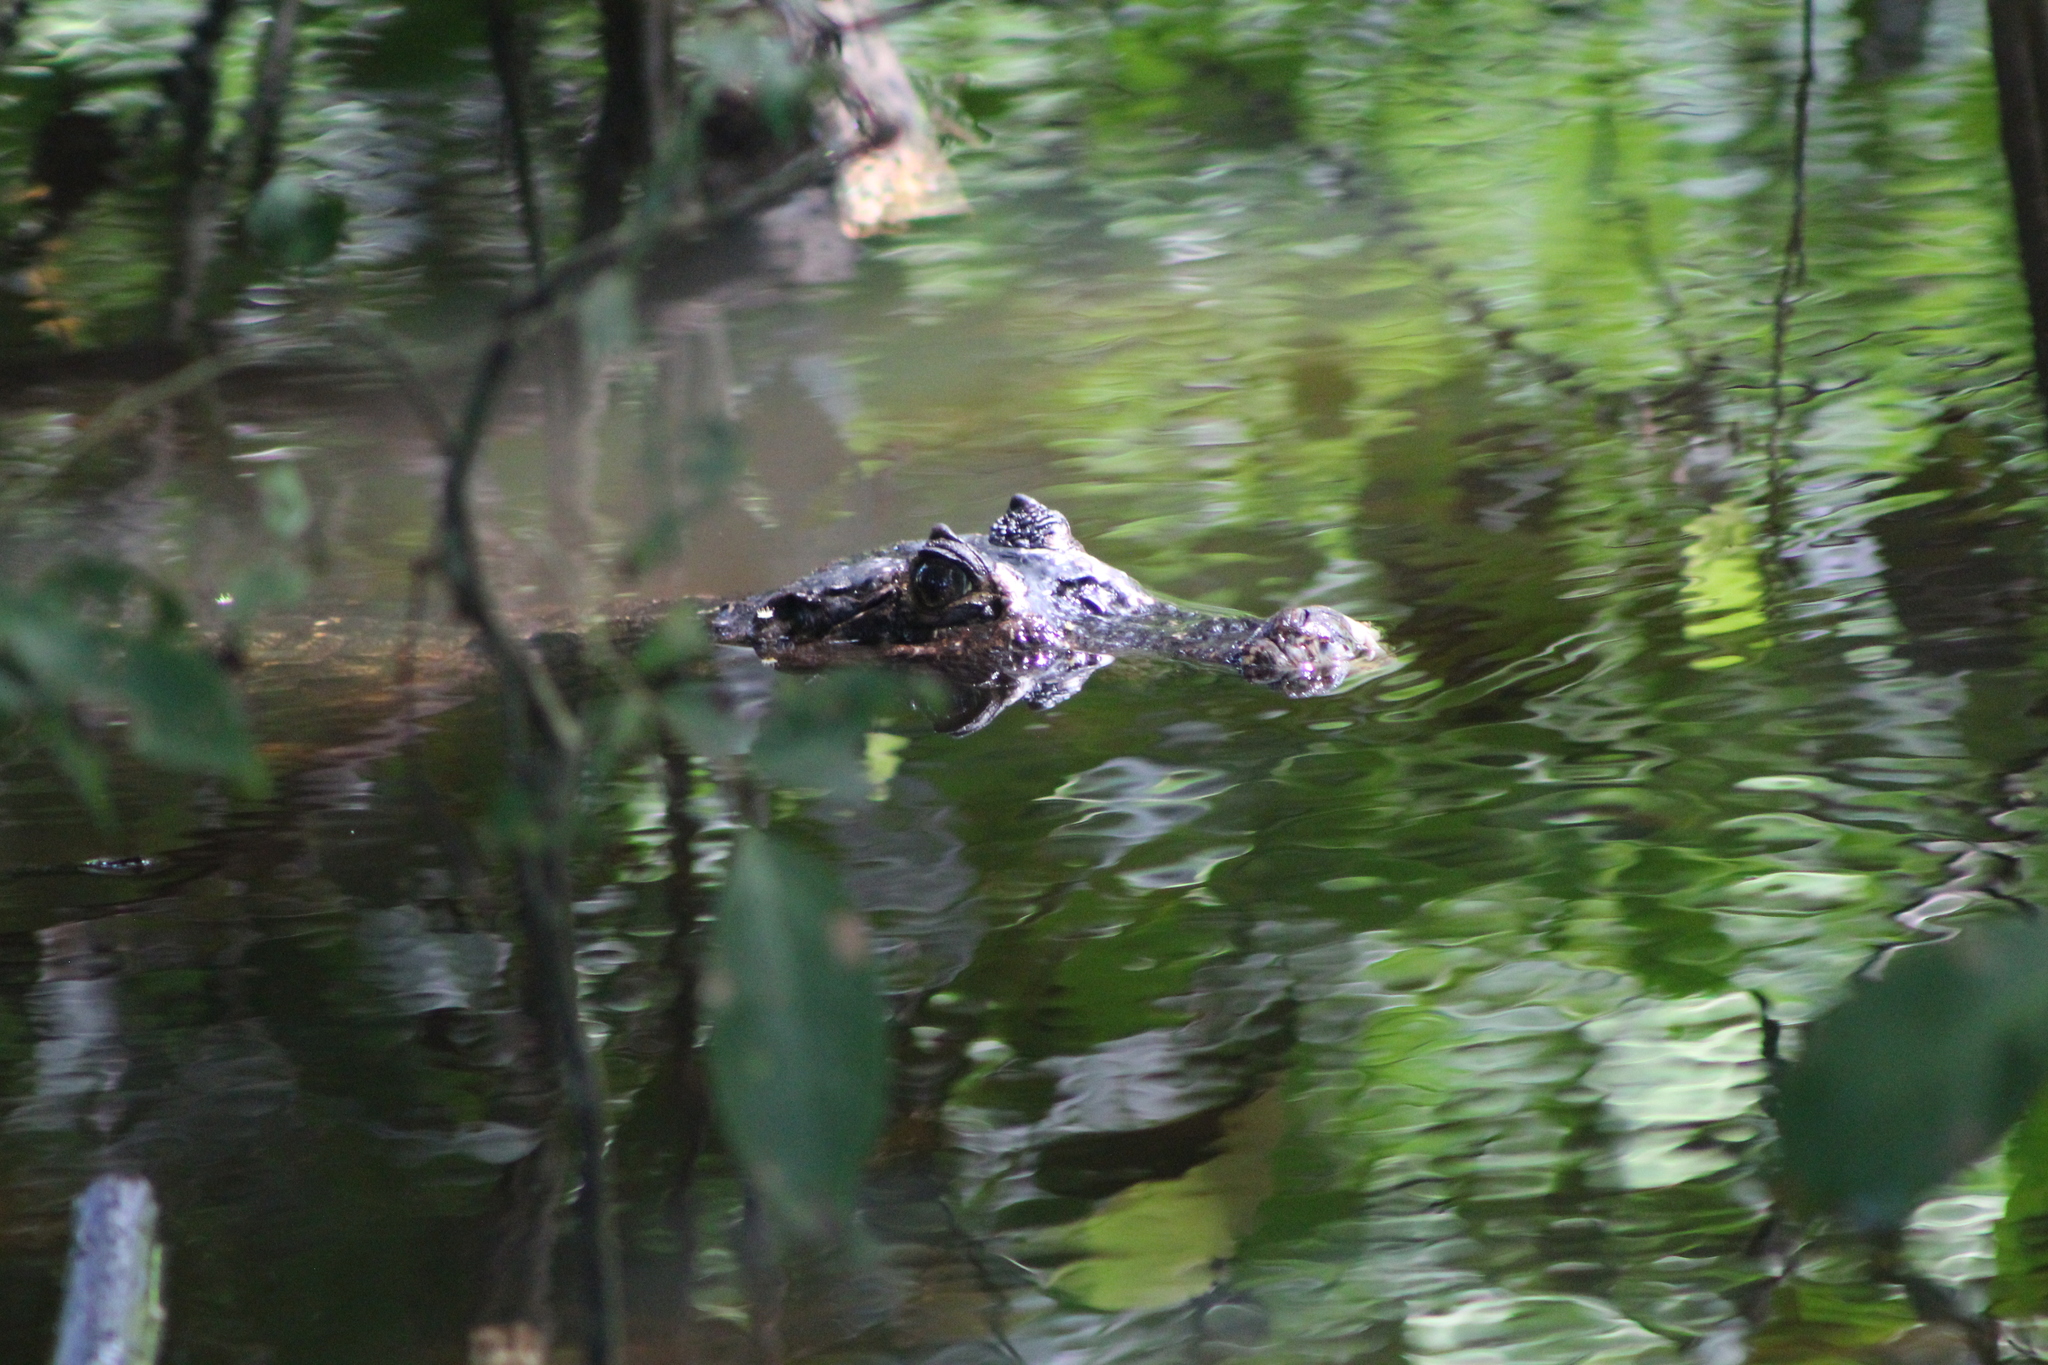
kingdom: Animalia
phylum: Chordata
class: Crocodylia
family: Alligatoridae
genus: Caiman
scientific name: Caiman crocodilus
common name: Common caiman
